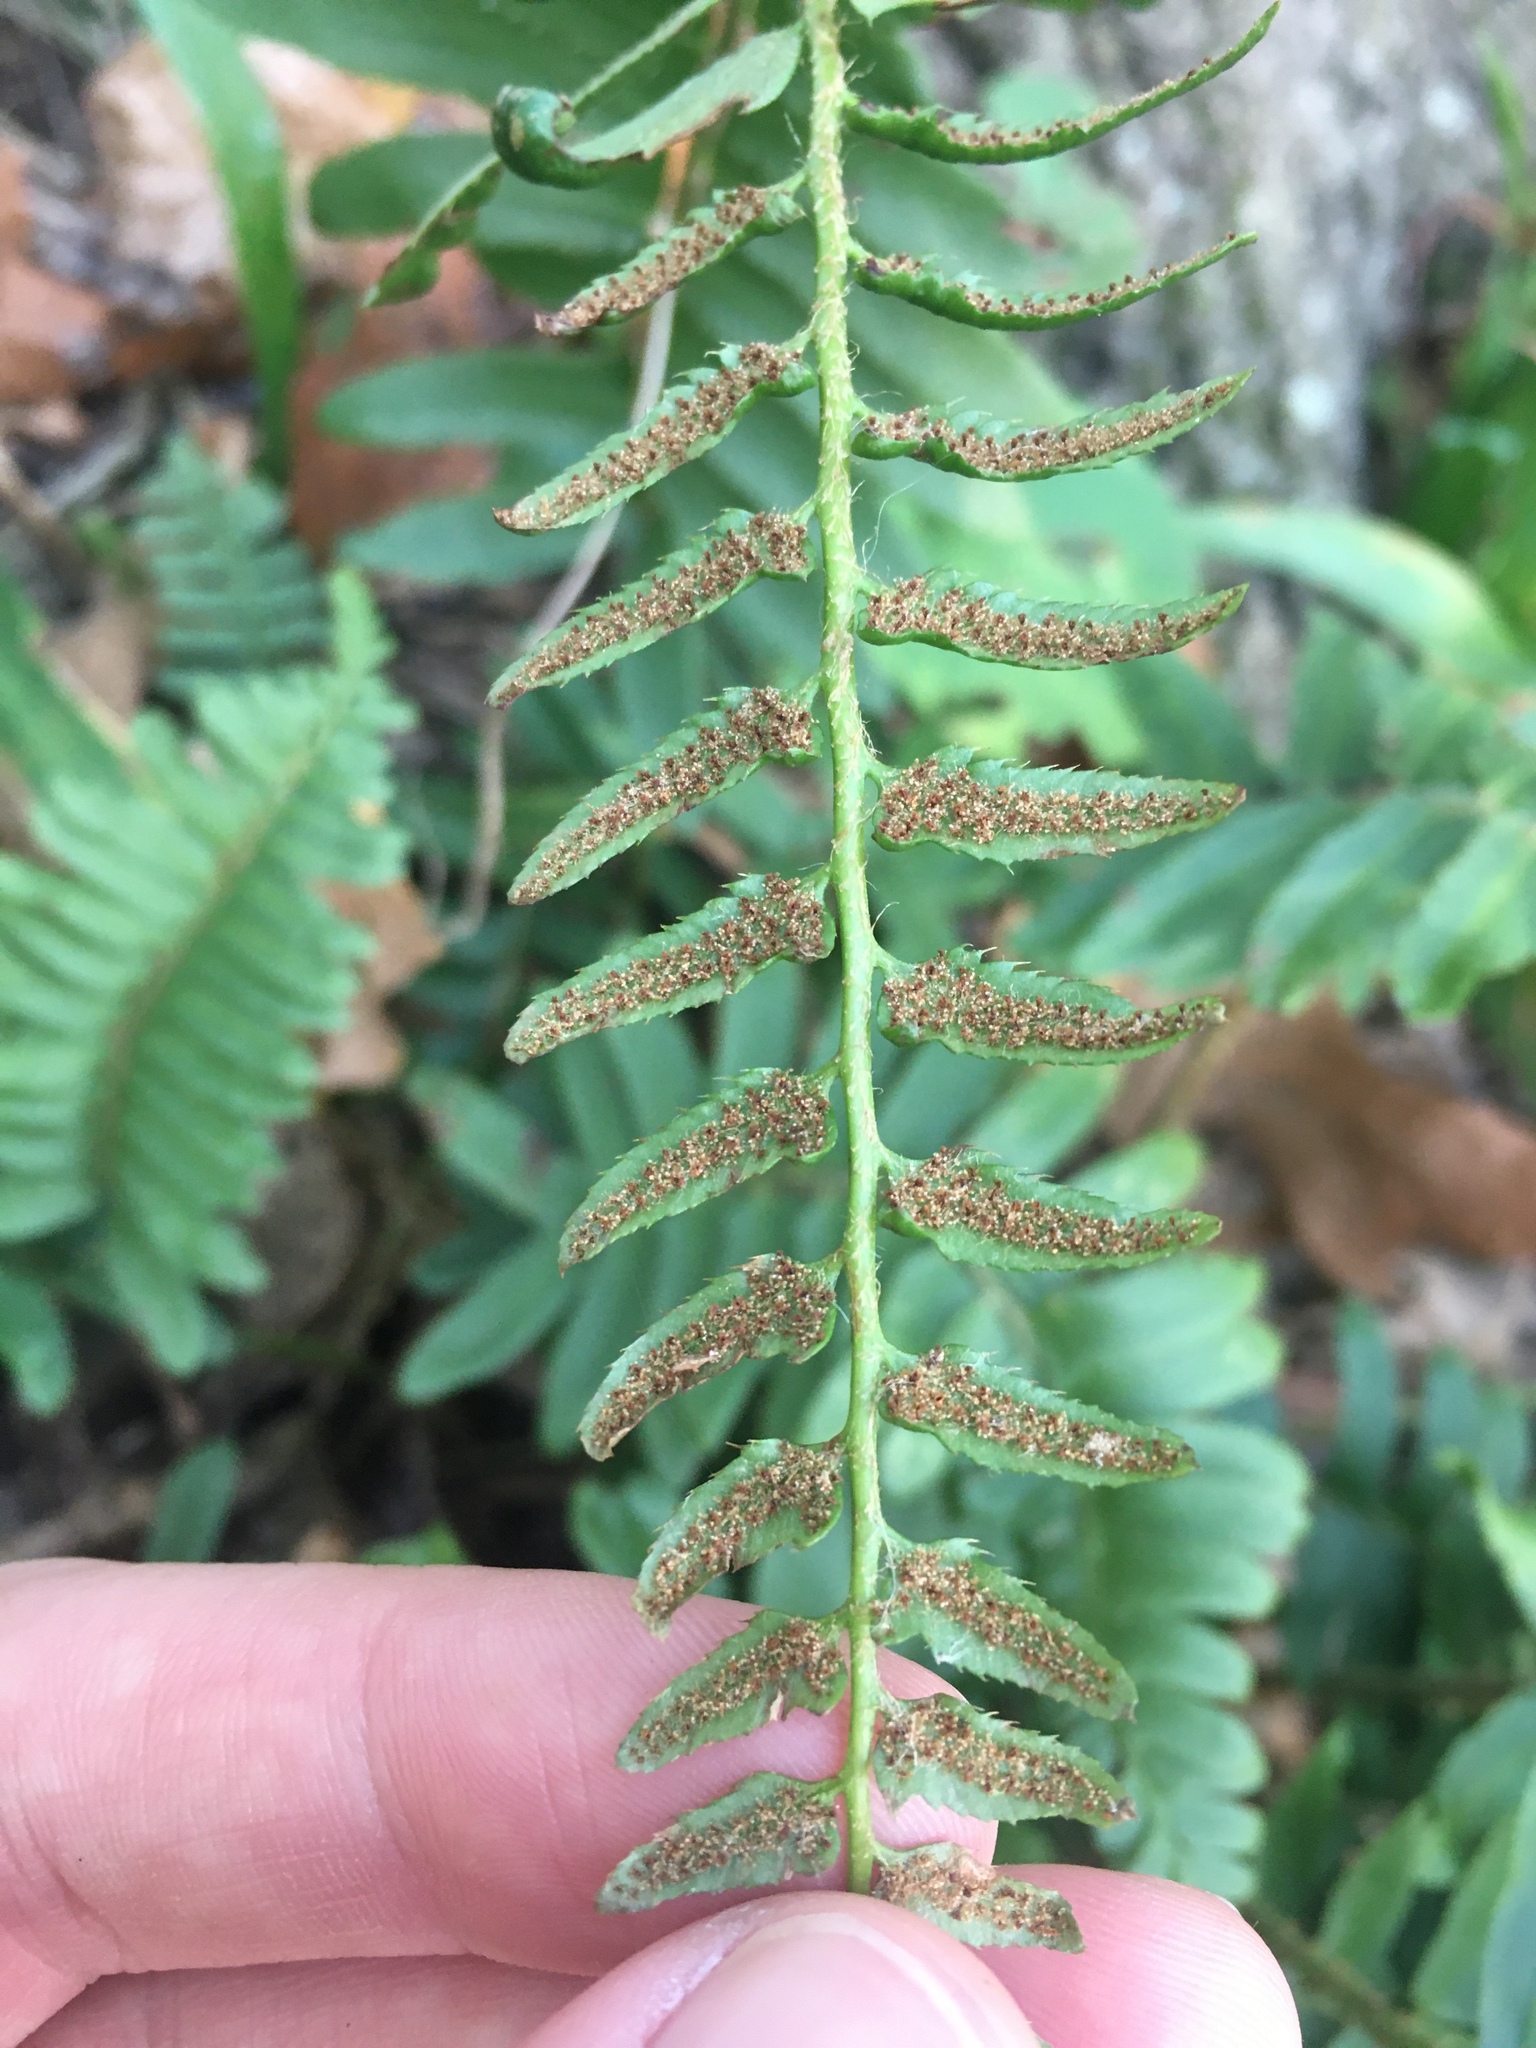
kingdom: Plantae
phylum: Tracheophyta
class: Polypodiopsida
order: Polypodiales
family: Dryopteridaceae
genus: Polystichum
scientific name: Polystichum acrostichoides
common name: Christmas fern
